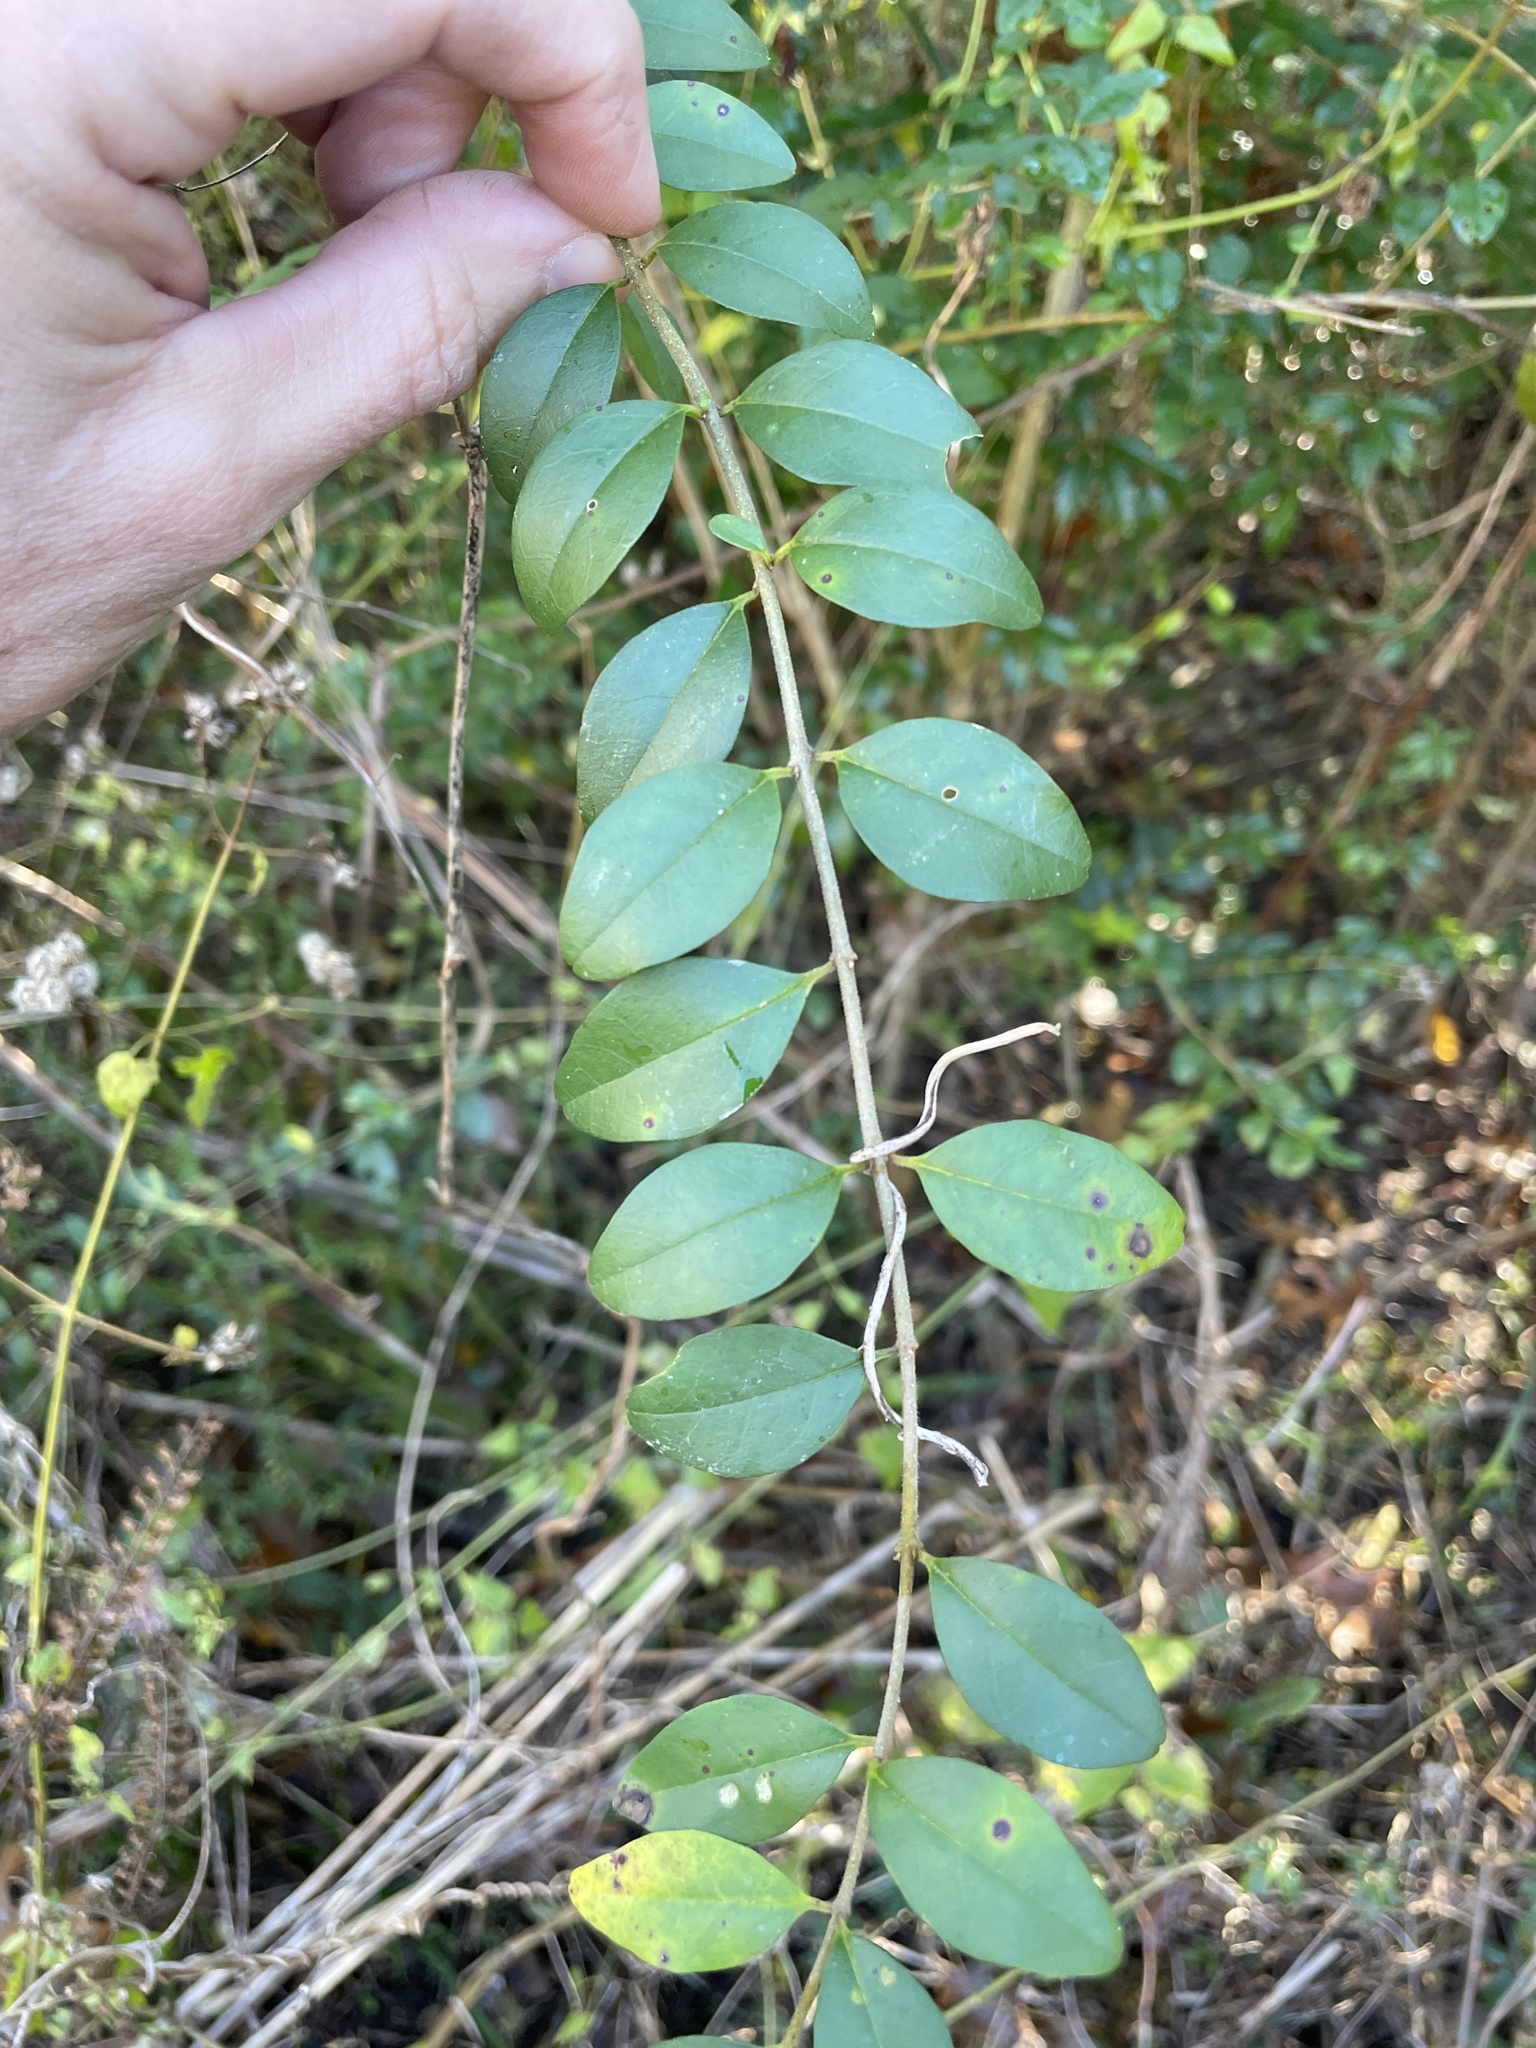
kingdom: Plantae
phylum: Tracheophyta
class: Magnoliopsida
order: Lamiales
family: Oleaceae
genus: Ligustrum
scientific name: Ligustrum sinense
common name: Chinese privet
